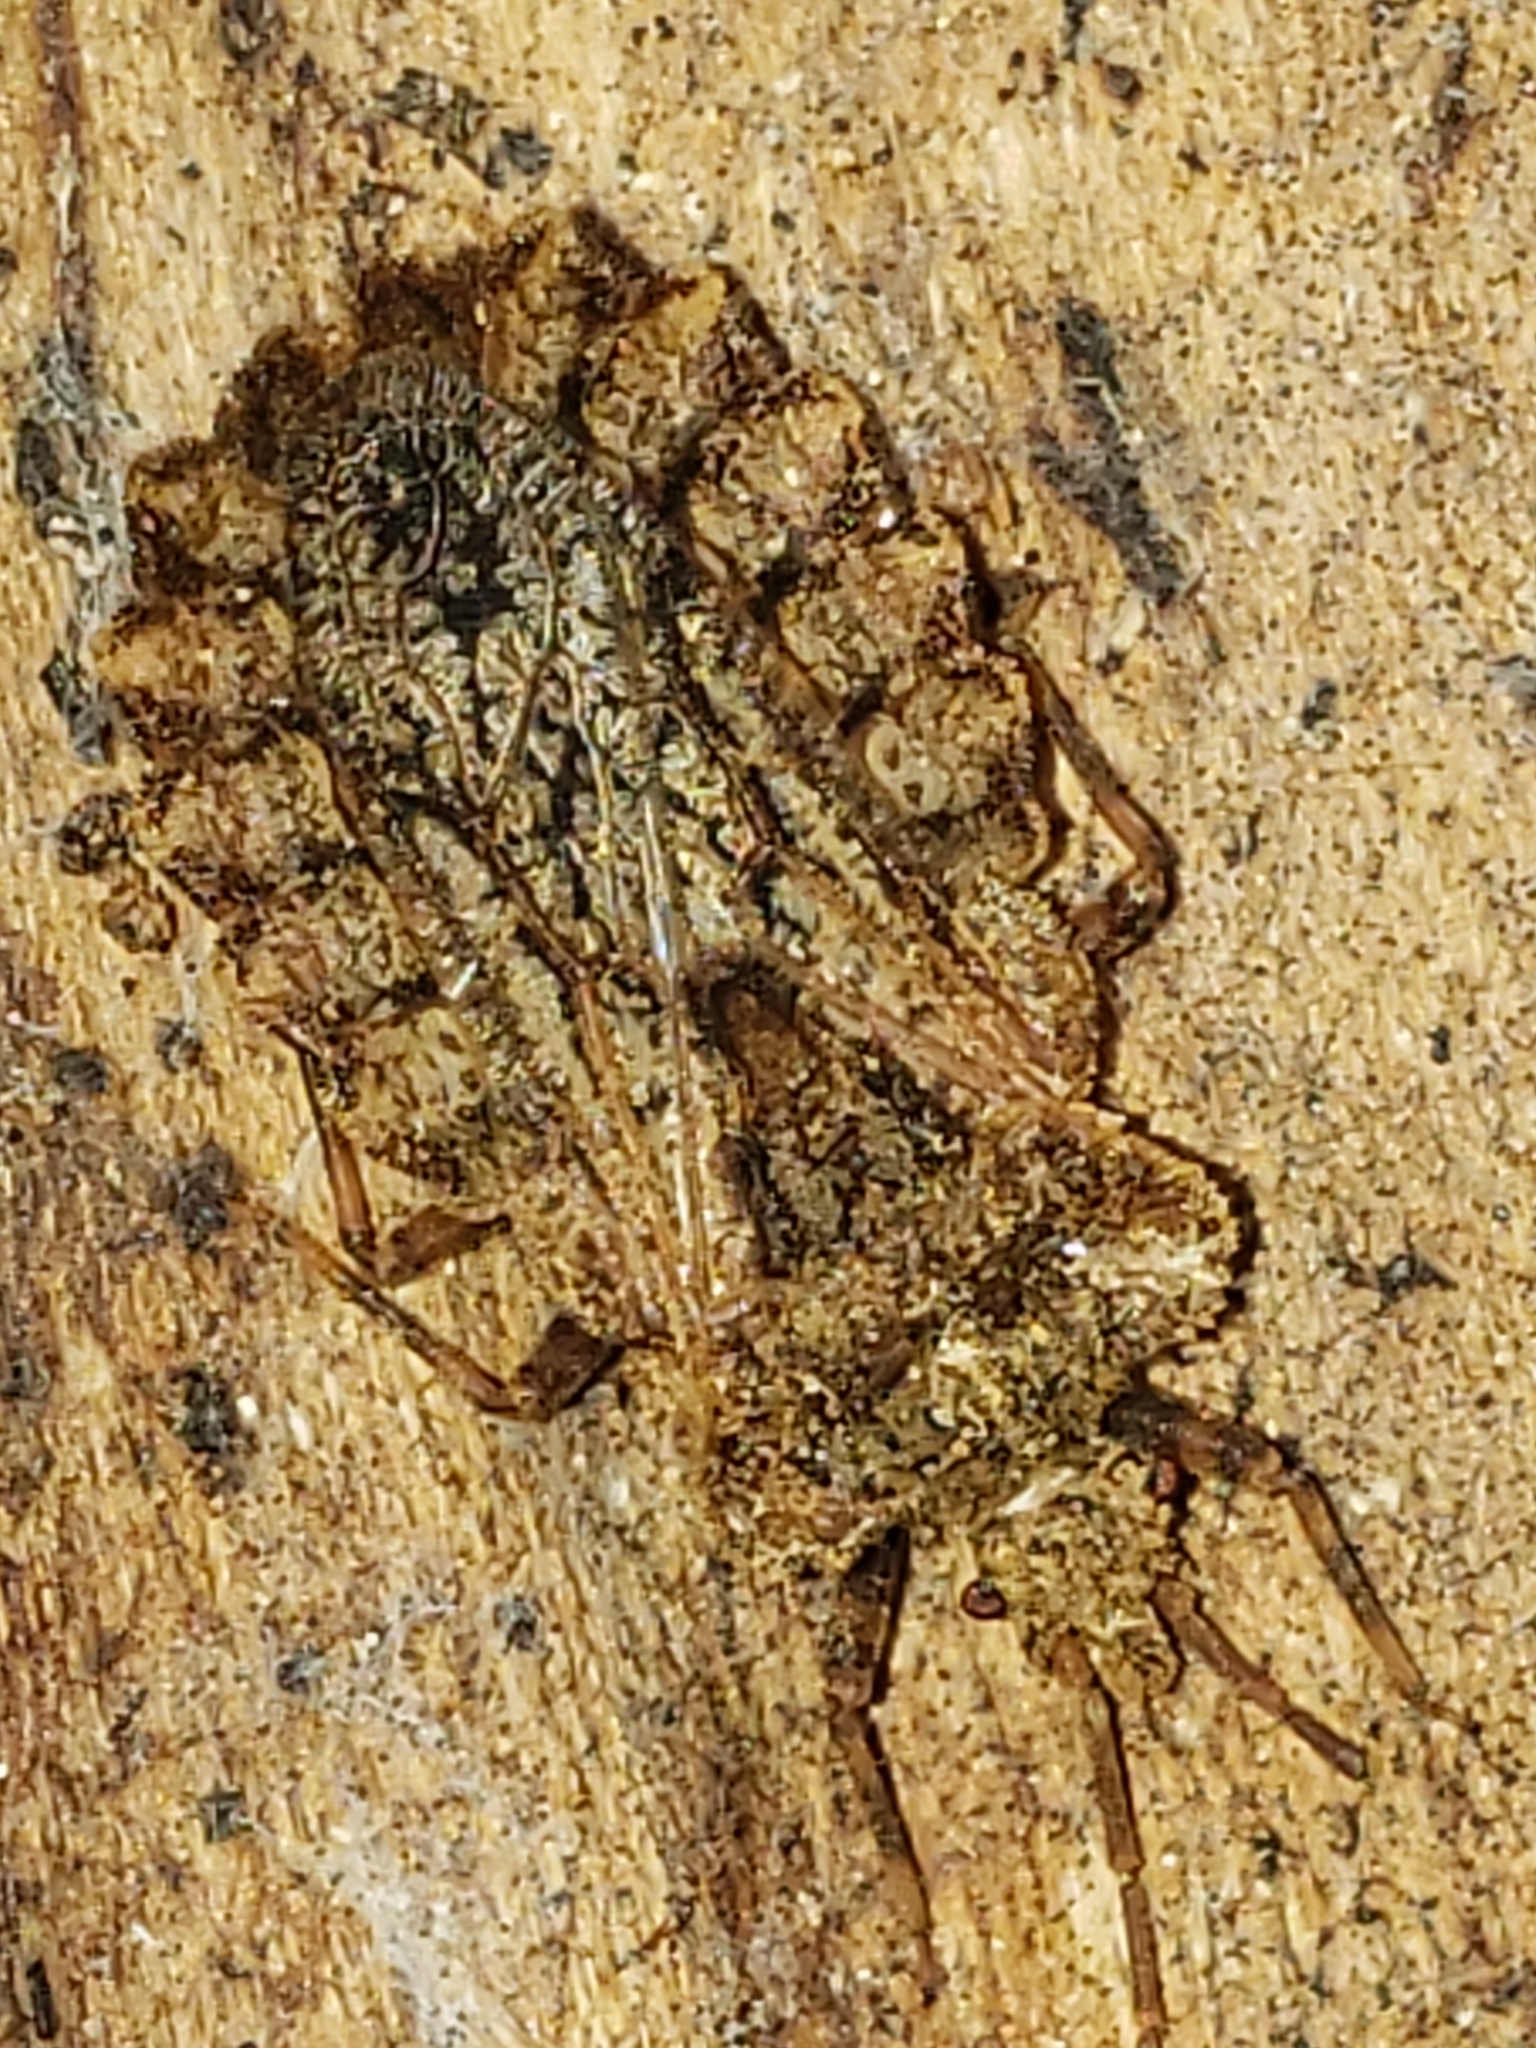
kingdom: Animalia
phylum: Arthropoda
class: Insecta
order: Hemiptera
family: Aradidae
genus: Aradus
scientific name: Aradus conspicuus
